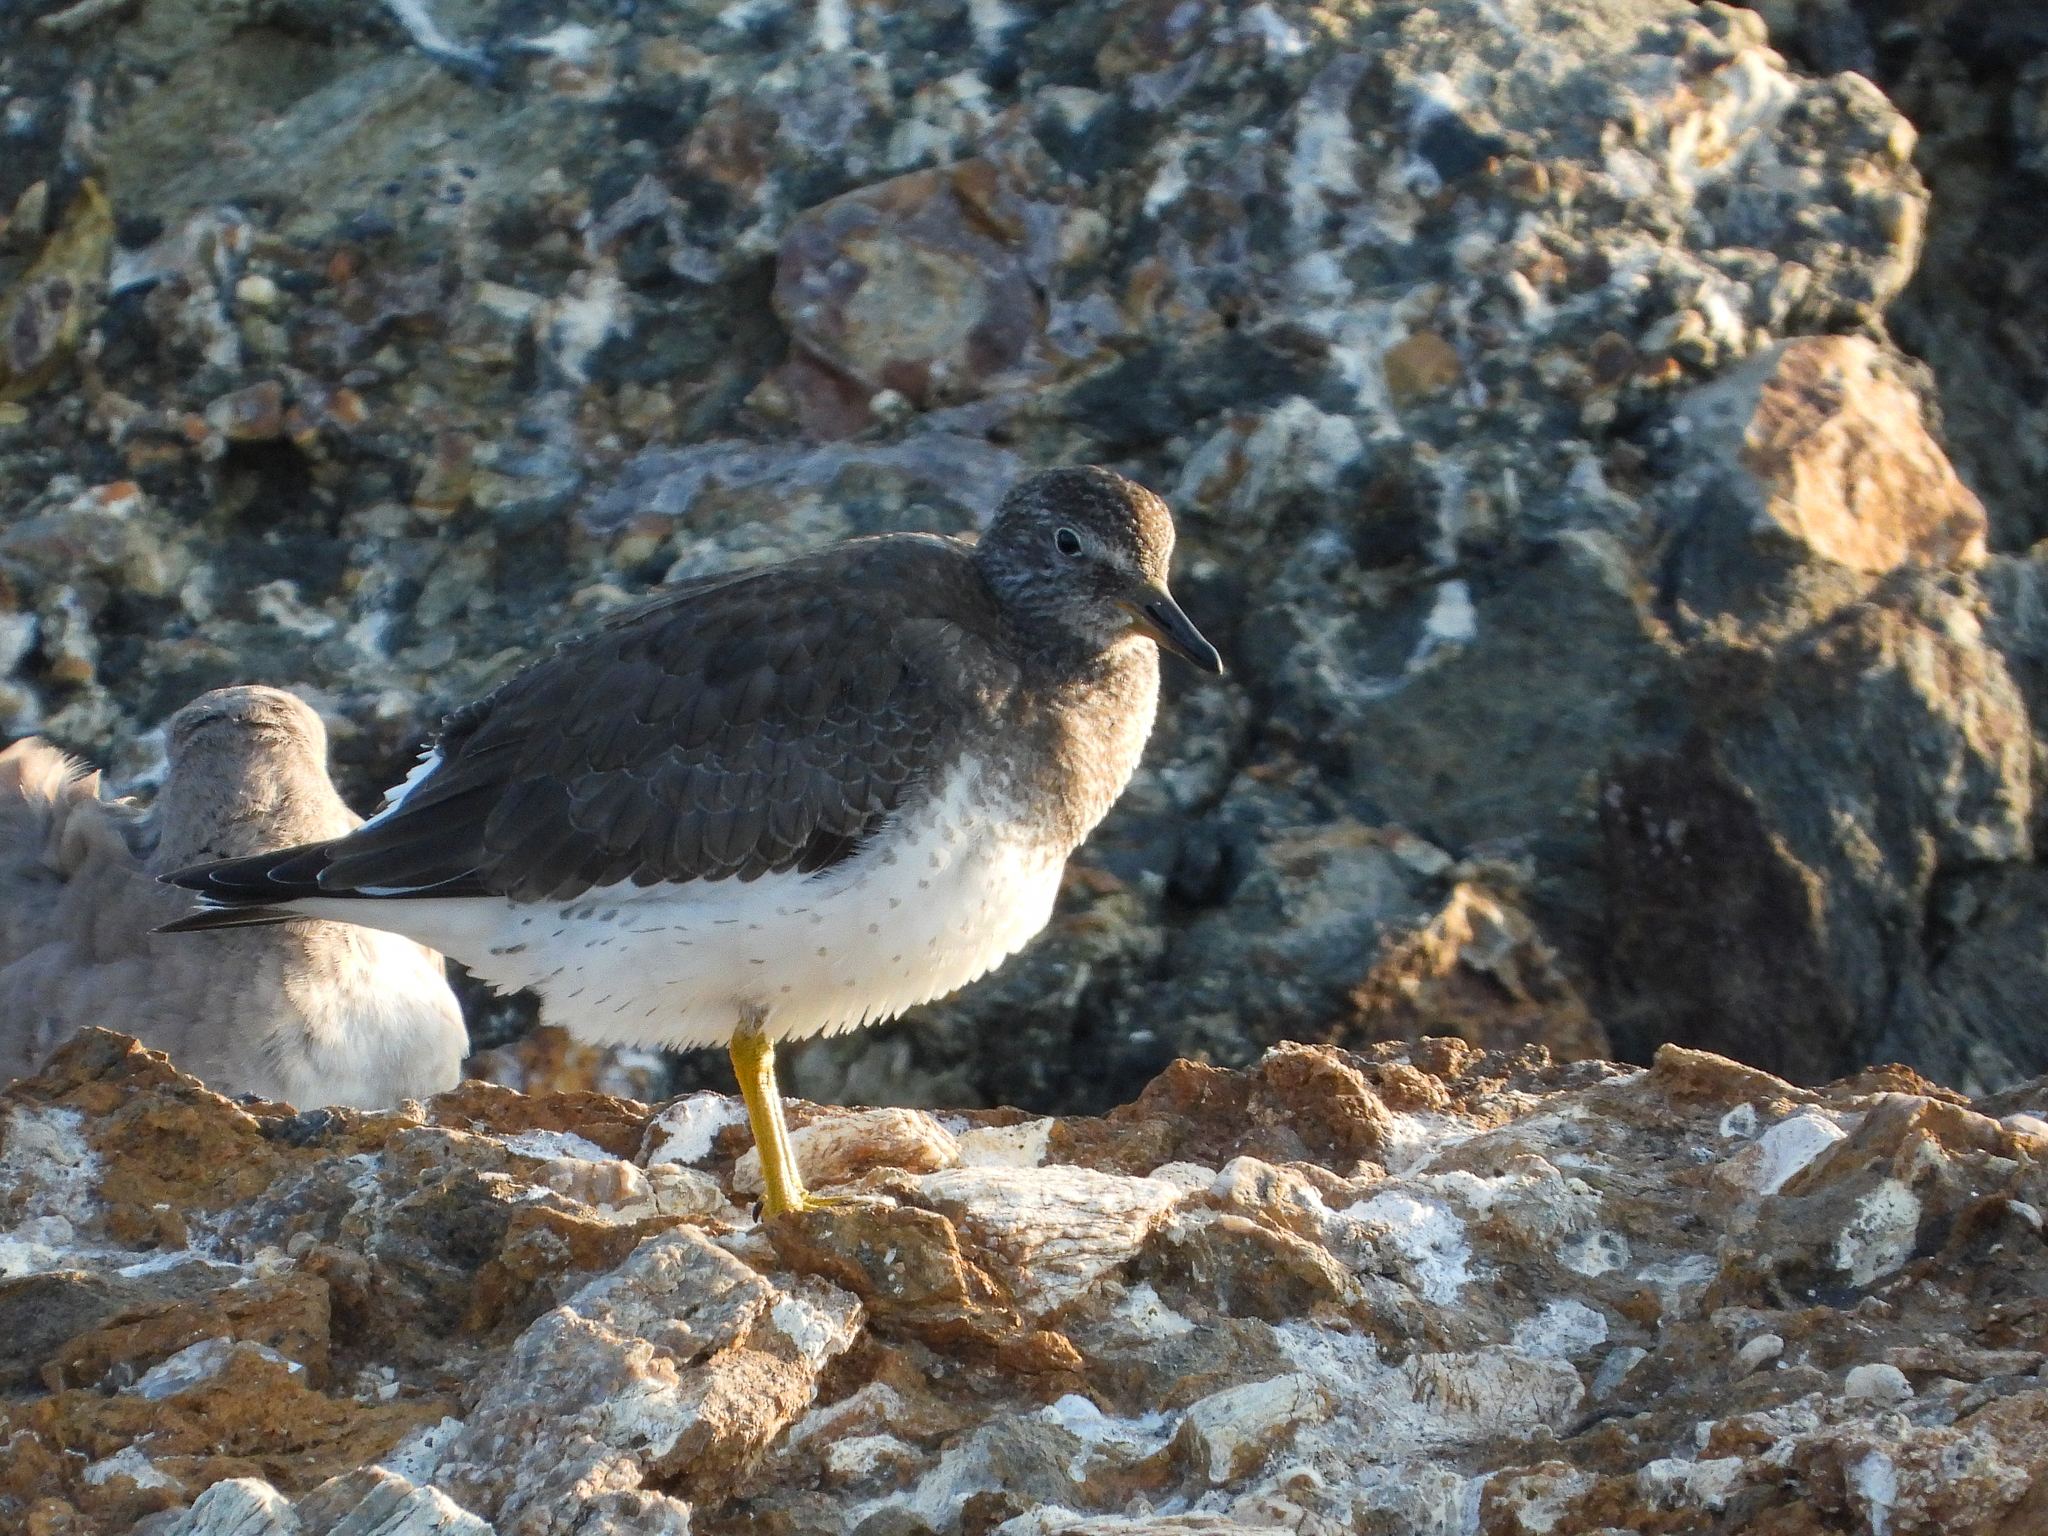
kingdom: Animalia
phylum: Chordata
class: Aves
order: Charadriiformes
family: Scolopacidae
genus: Calidris
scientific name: Calidris virgata
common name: Surfbird
